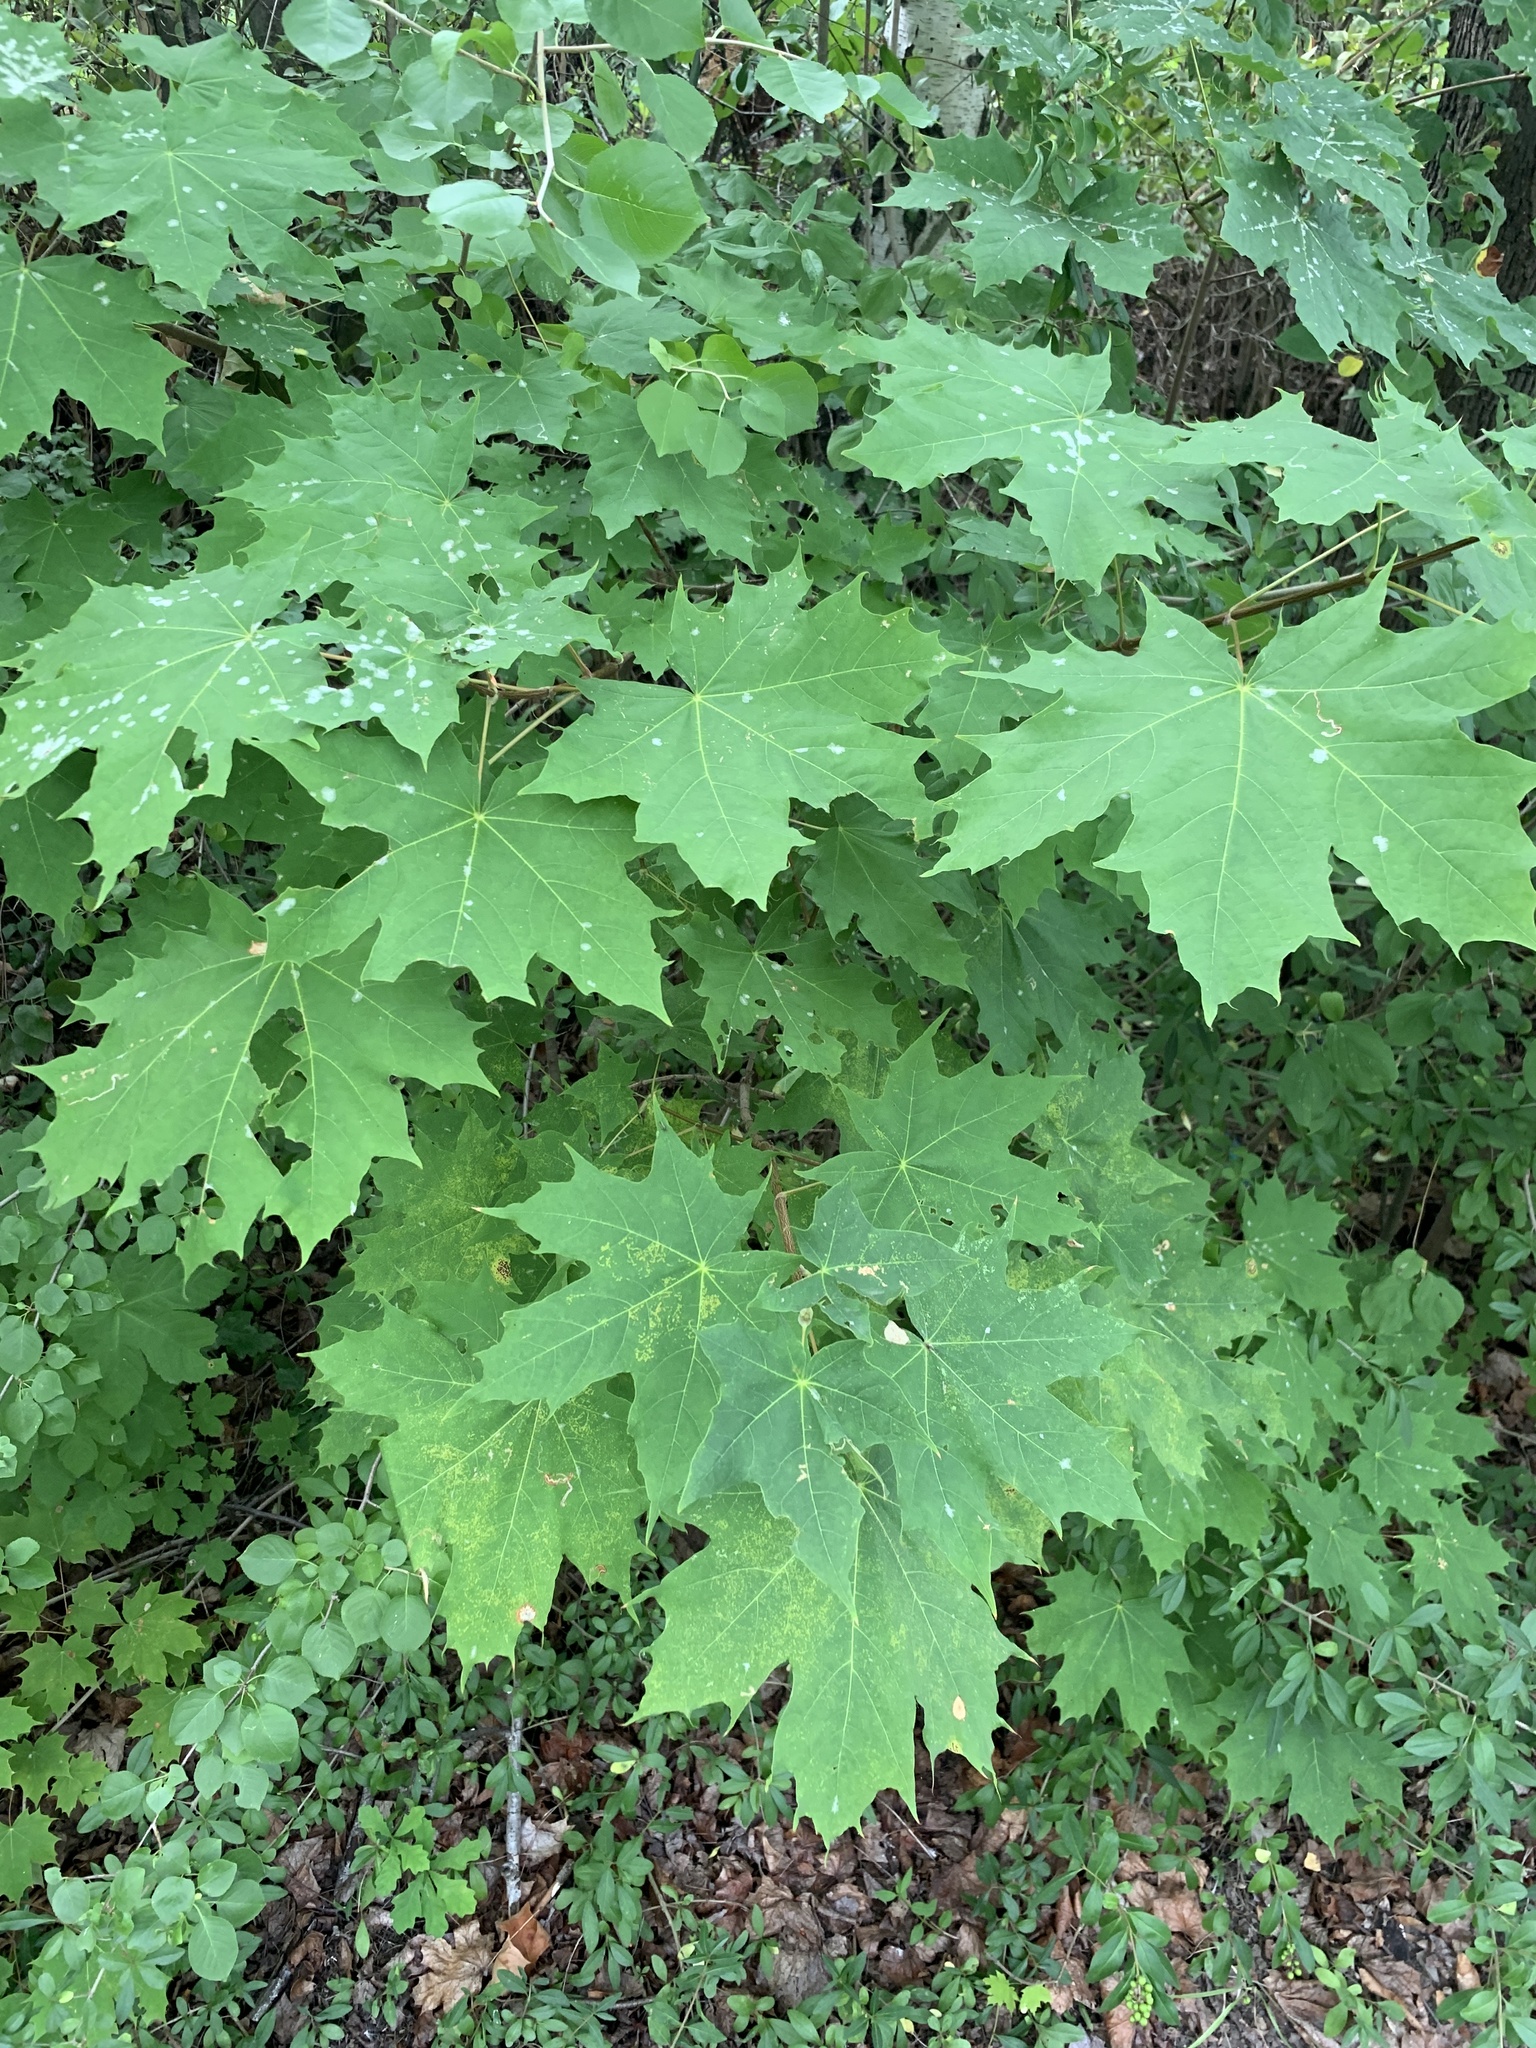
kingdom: Plantae
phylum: Tracheophyta
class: Magnoliopsida
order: Sapindales
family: Sapindaceae
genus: Acer
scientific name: Acer platanoides
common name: Norway maple
